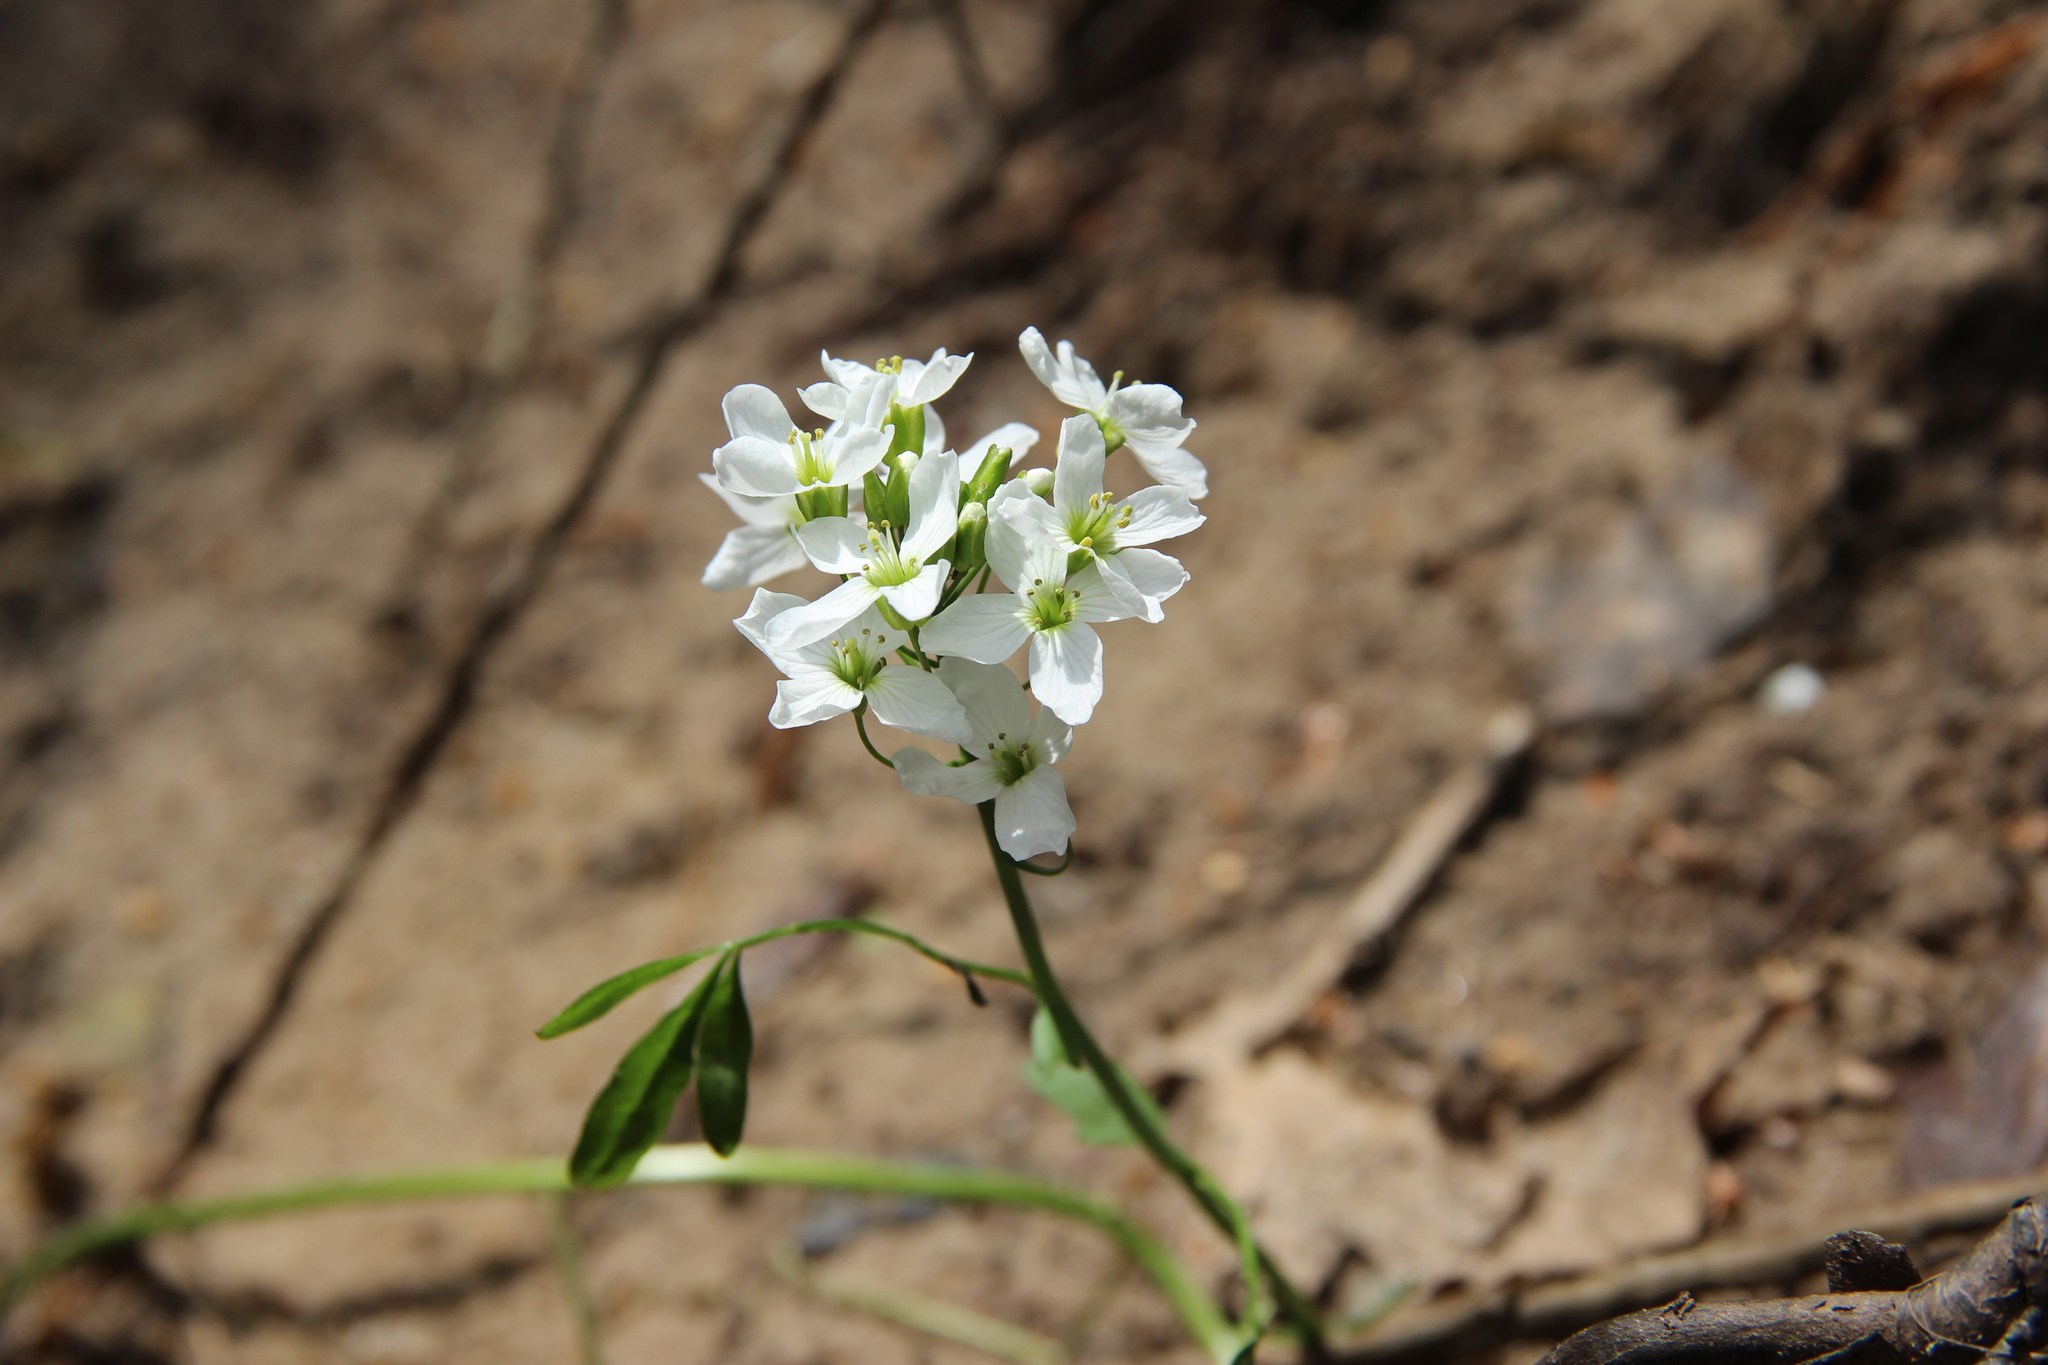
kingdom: Plantae
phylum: Tracheophyta
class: Magnoliopsida
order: Brassicales
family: Brassicaceae
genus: Cardamine
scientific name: Cardamine dentata
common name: Toothed bittercress
